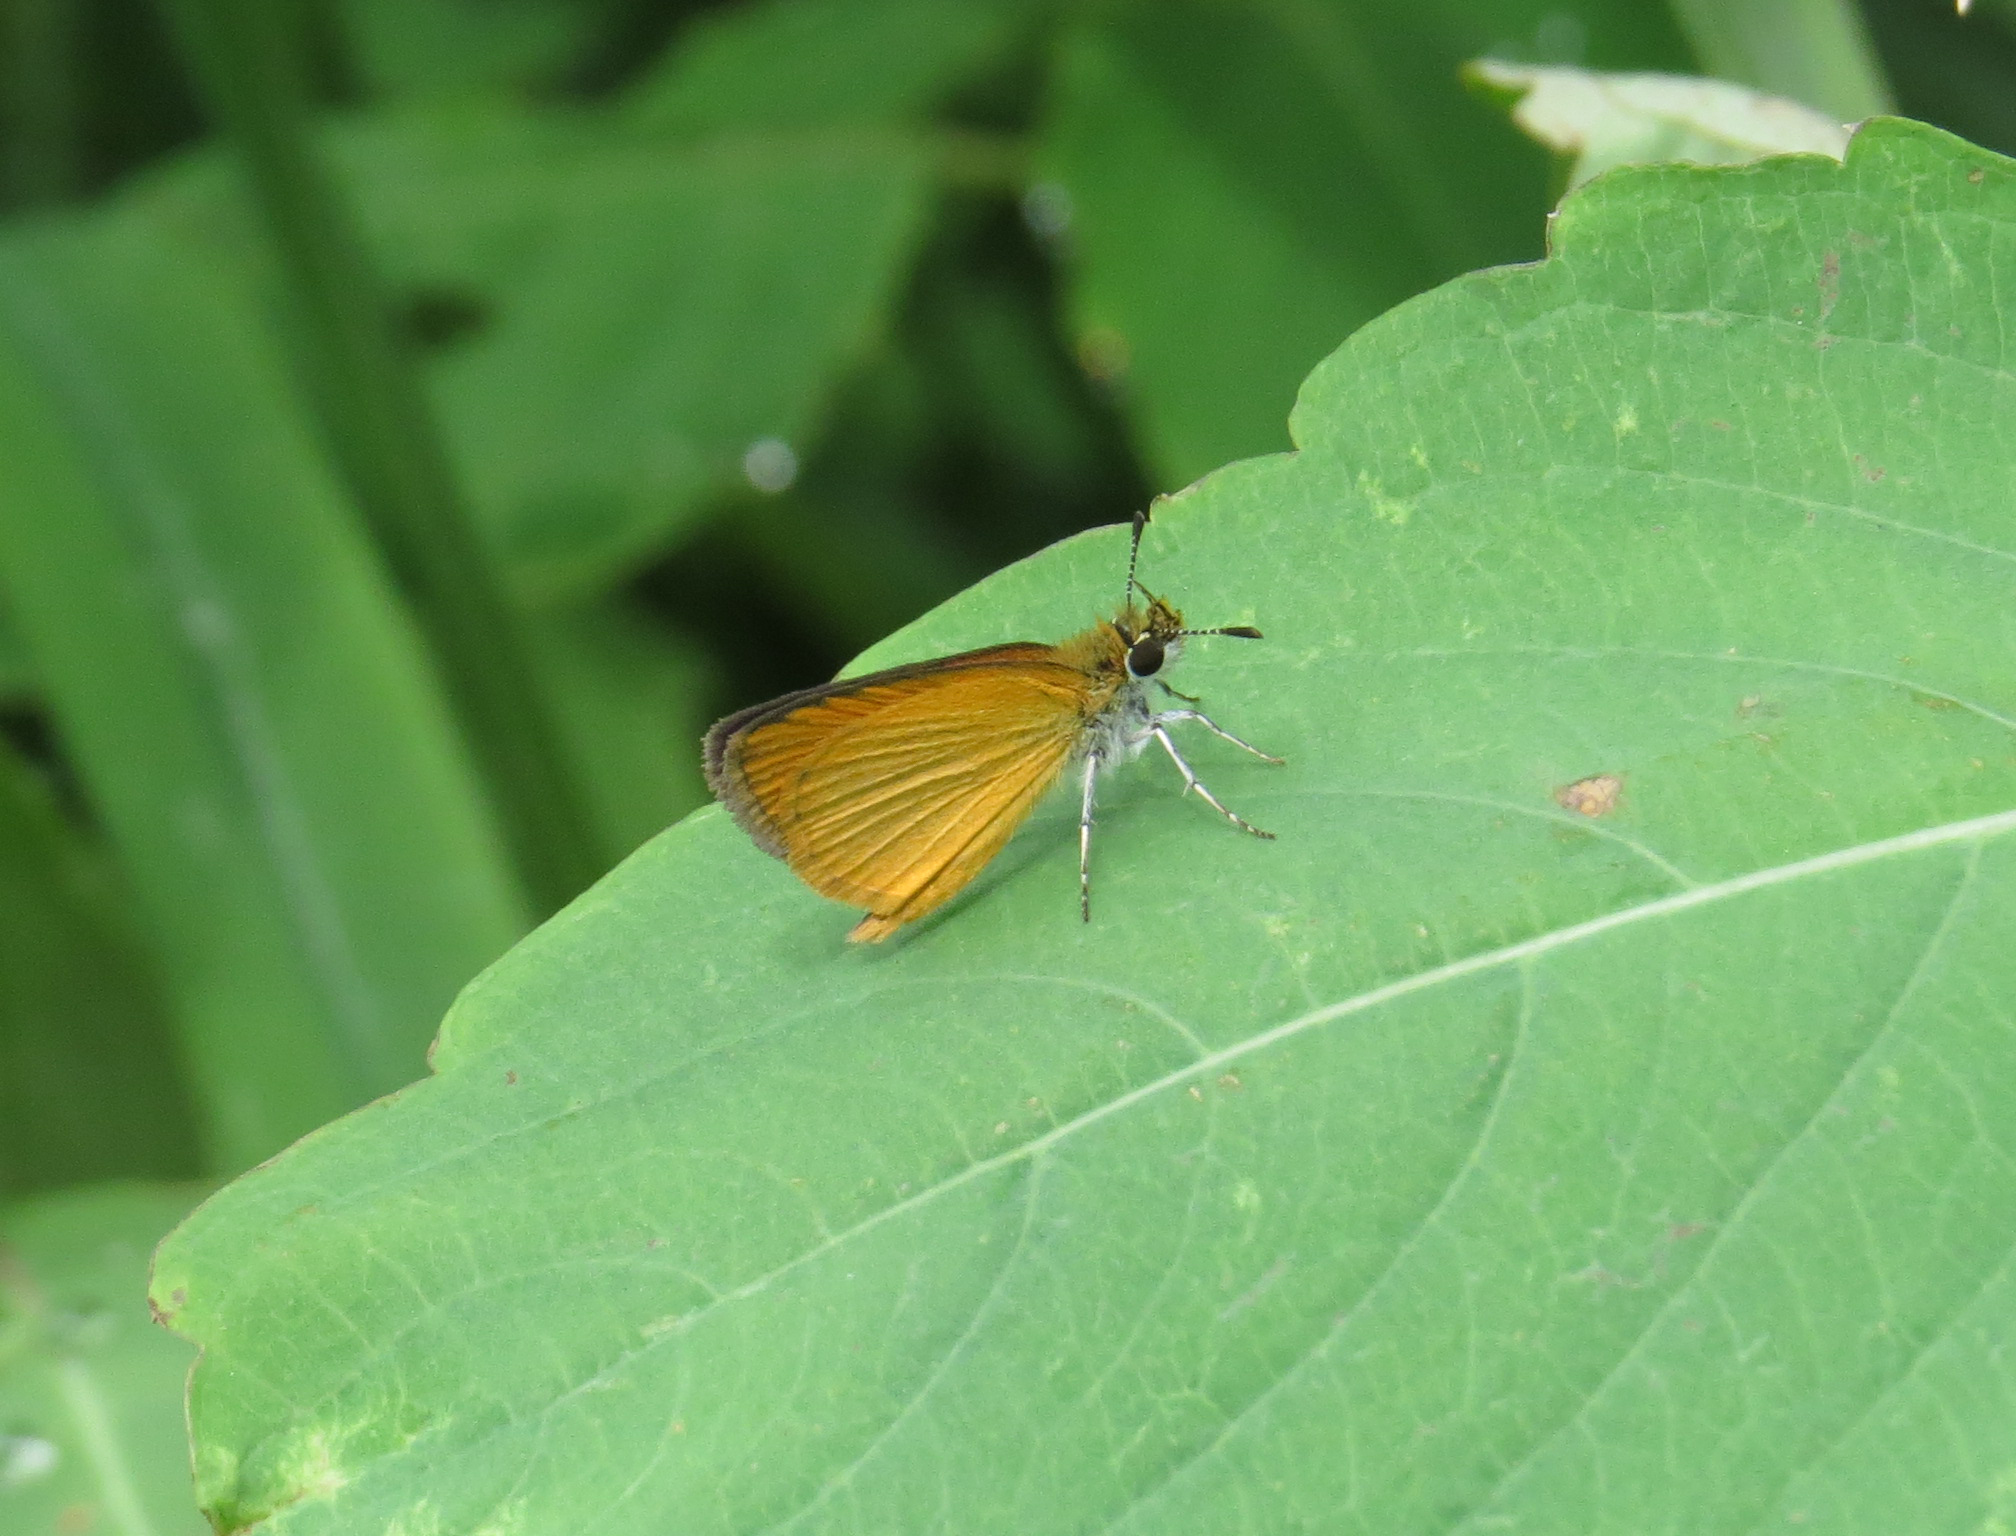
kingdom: Animalia
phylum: Arthropoda
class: Insecta
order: Lepidoptera
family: Hesperiidae
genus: Ancyloxypha
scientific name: Ancyloxypha numitor
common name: Least skipper
